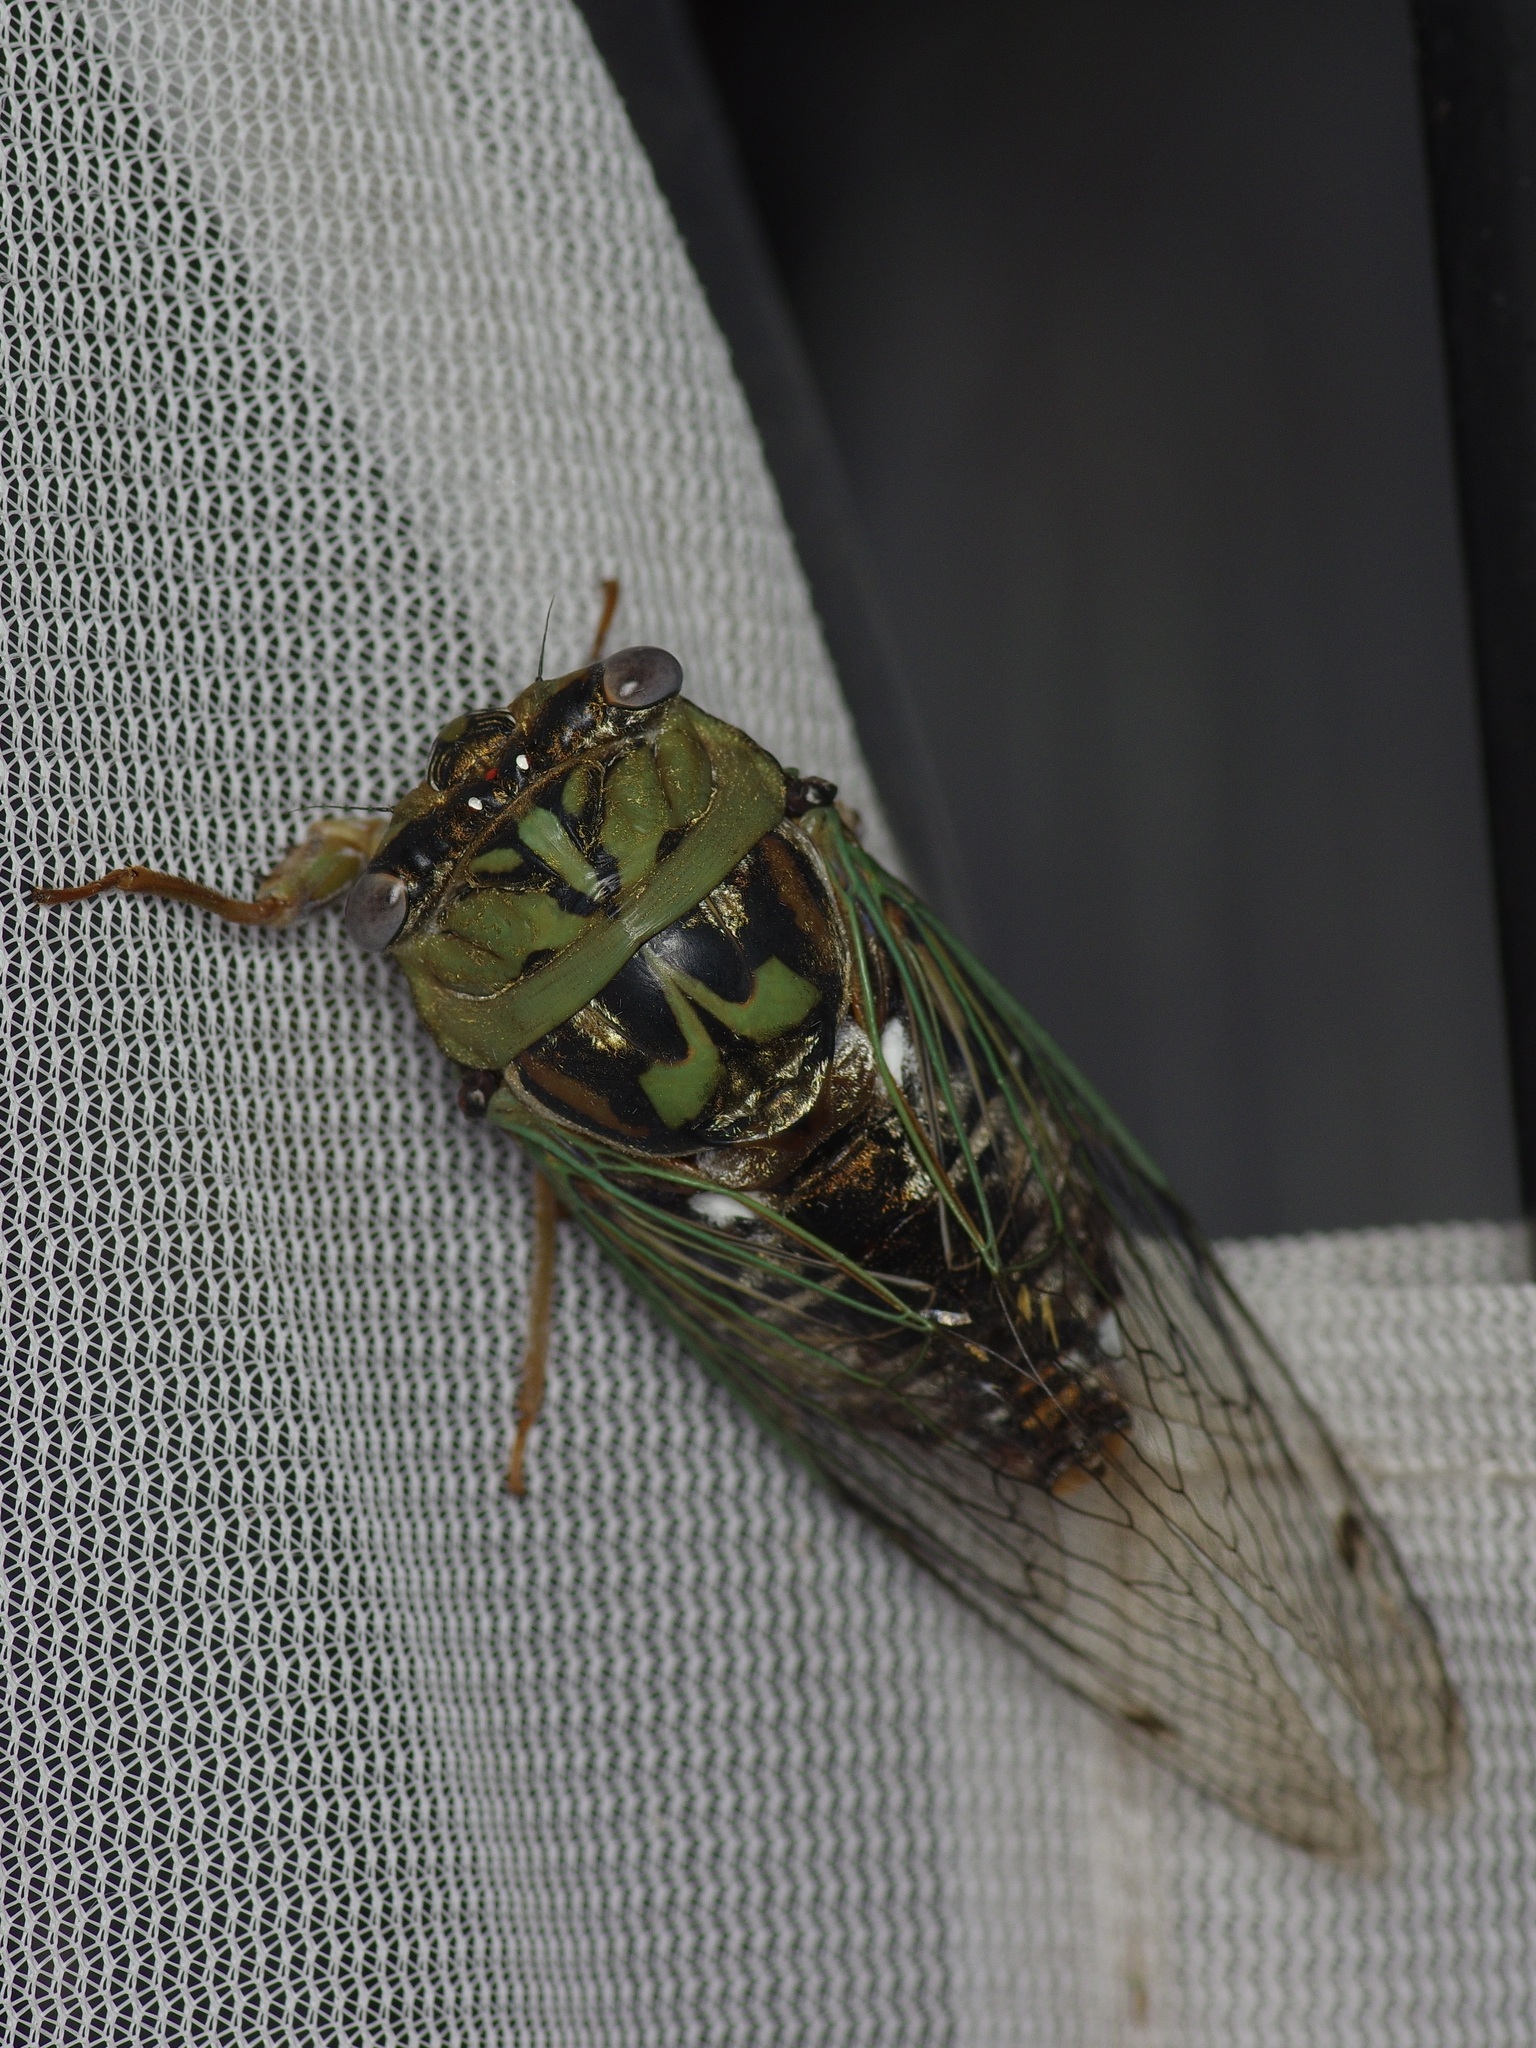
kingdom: Animalia
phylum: Arthropoda
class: Insecta
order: Hemiptera
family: Cicadidae
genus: Megatibicen
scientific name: Megatibicen resh
